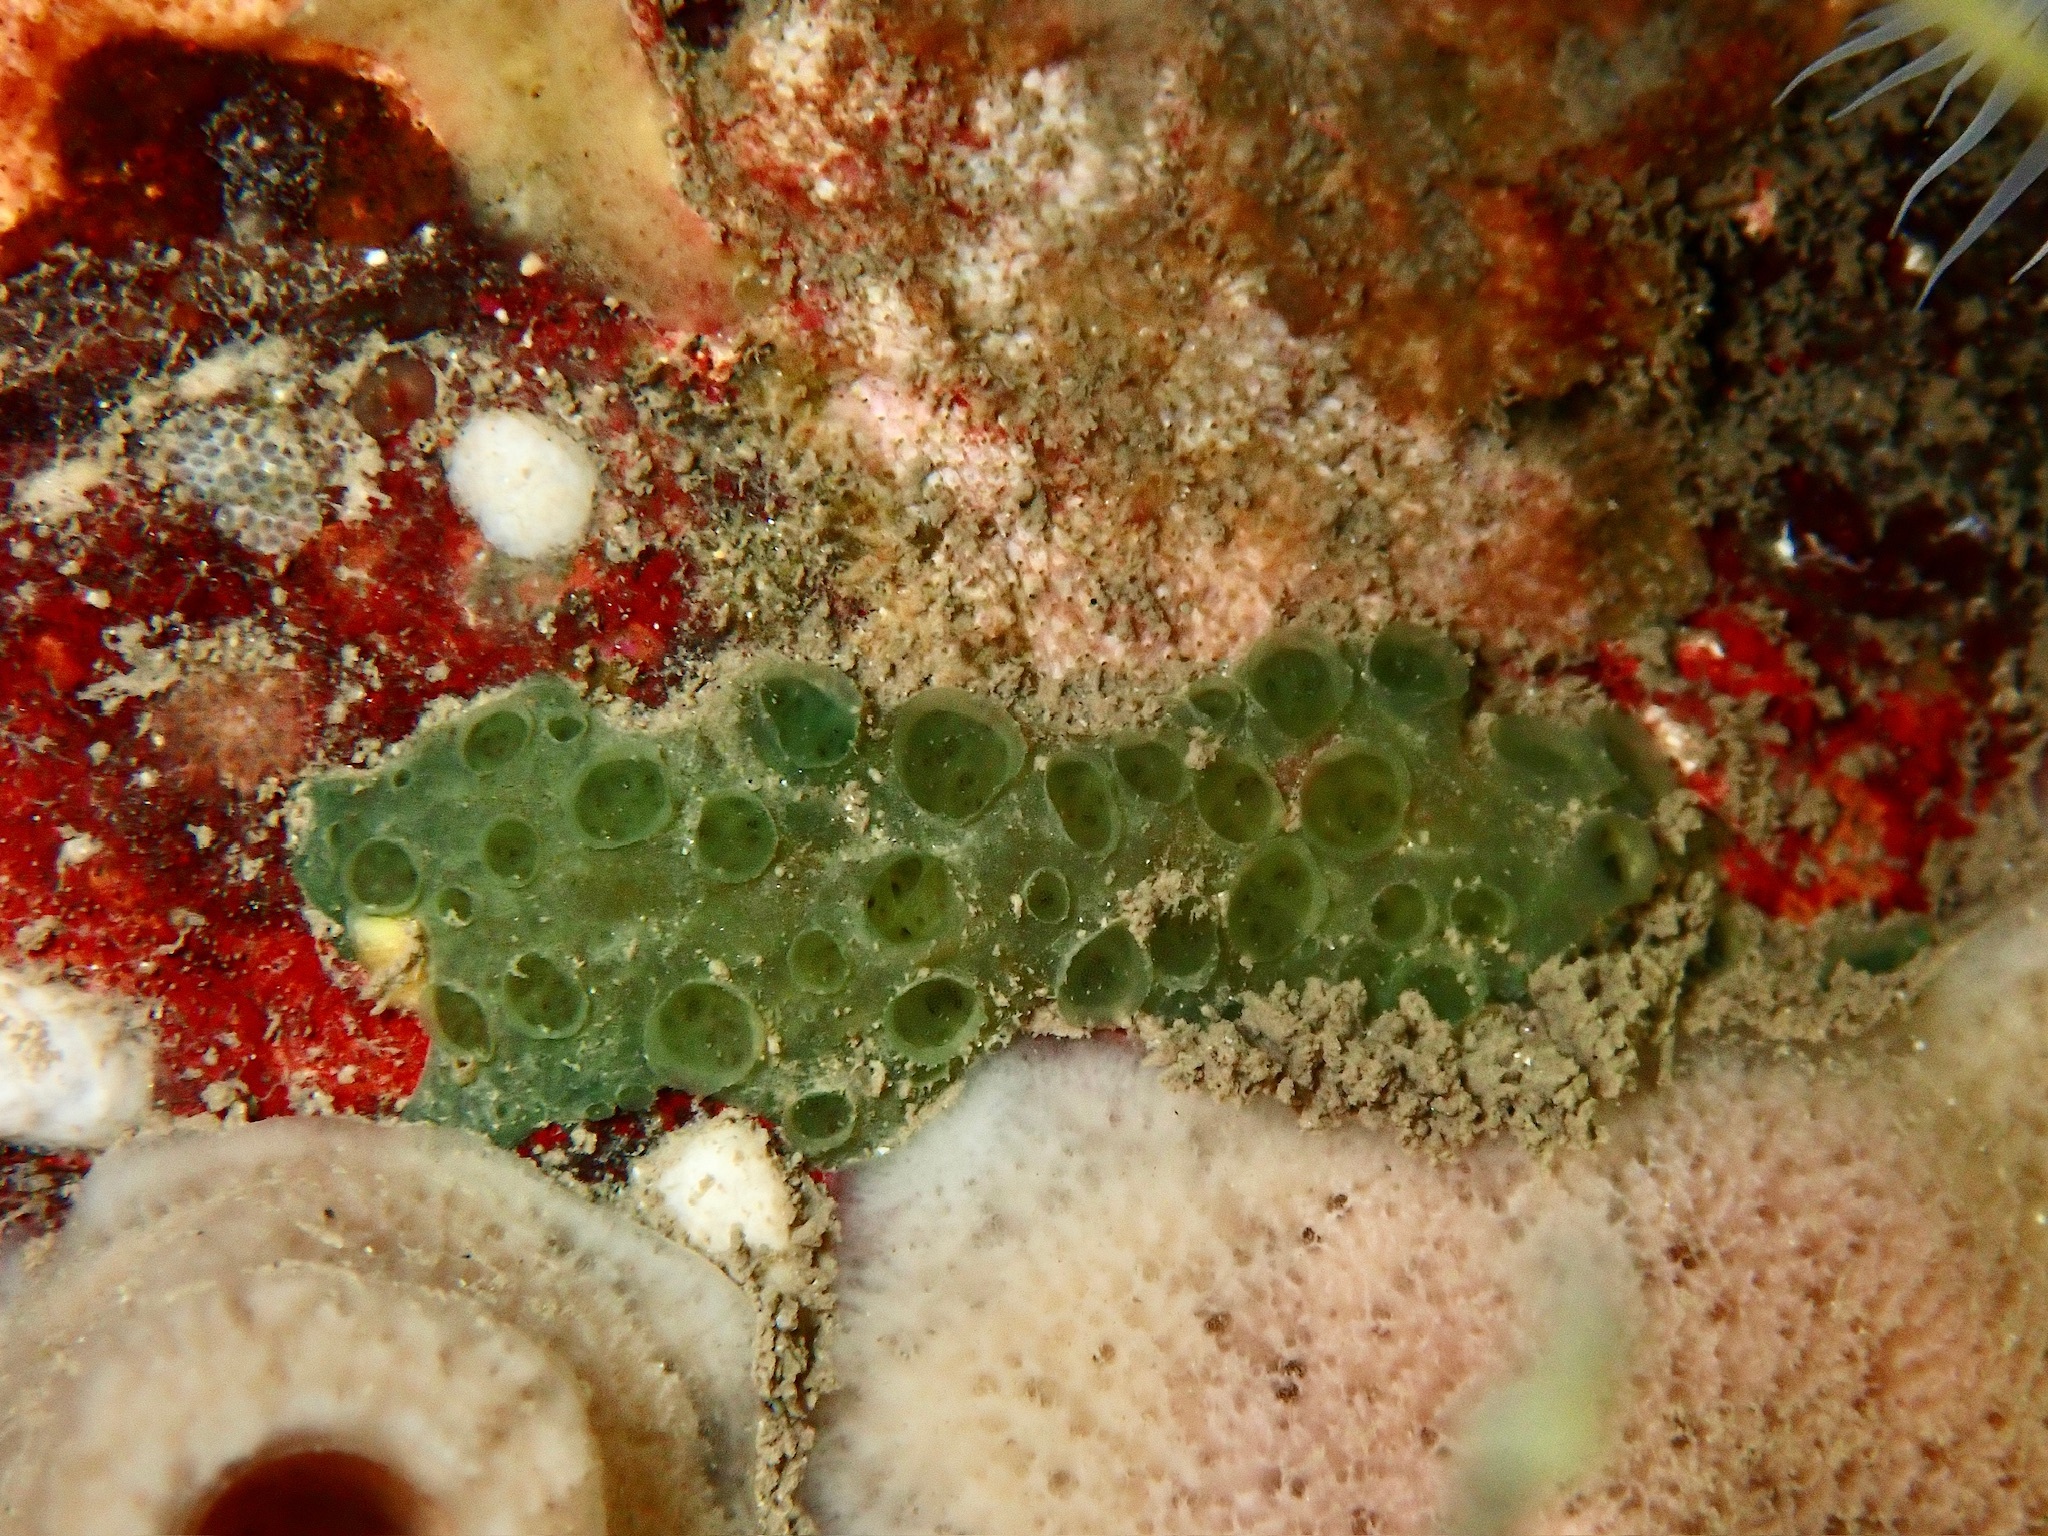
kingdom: Animalia
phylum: Porifera
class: Demospongiae
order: Poecilosclerida
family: Hymedesmiidae
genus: Hymedesmia
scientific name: Hymedesmia paupertas
